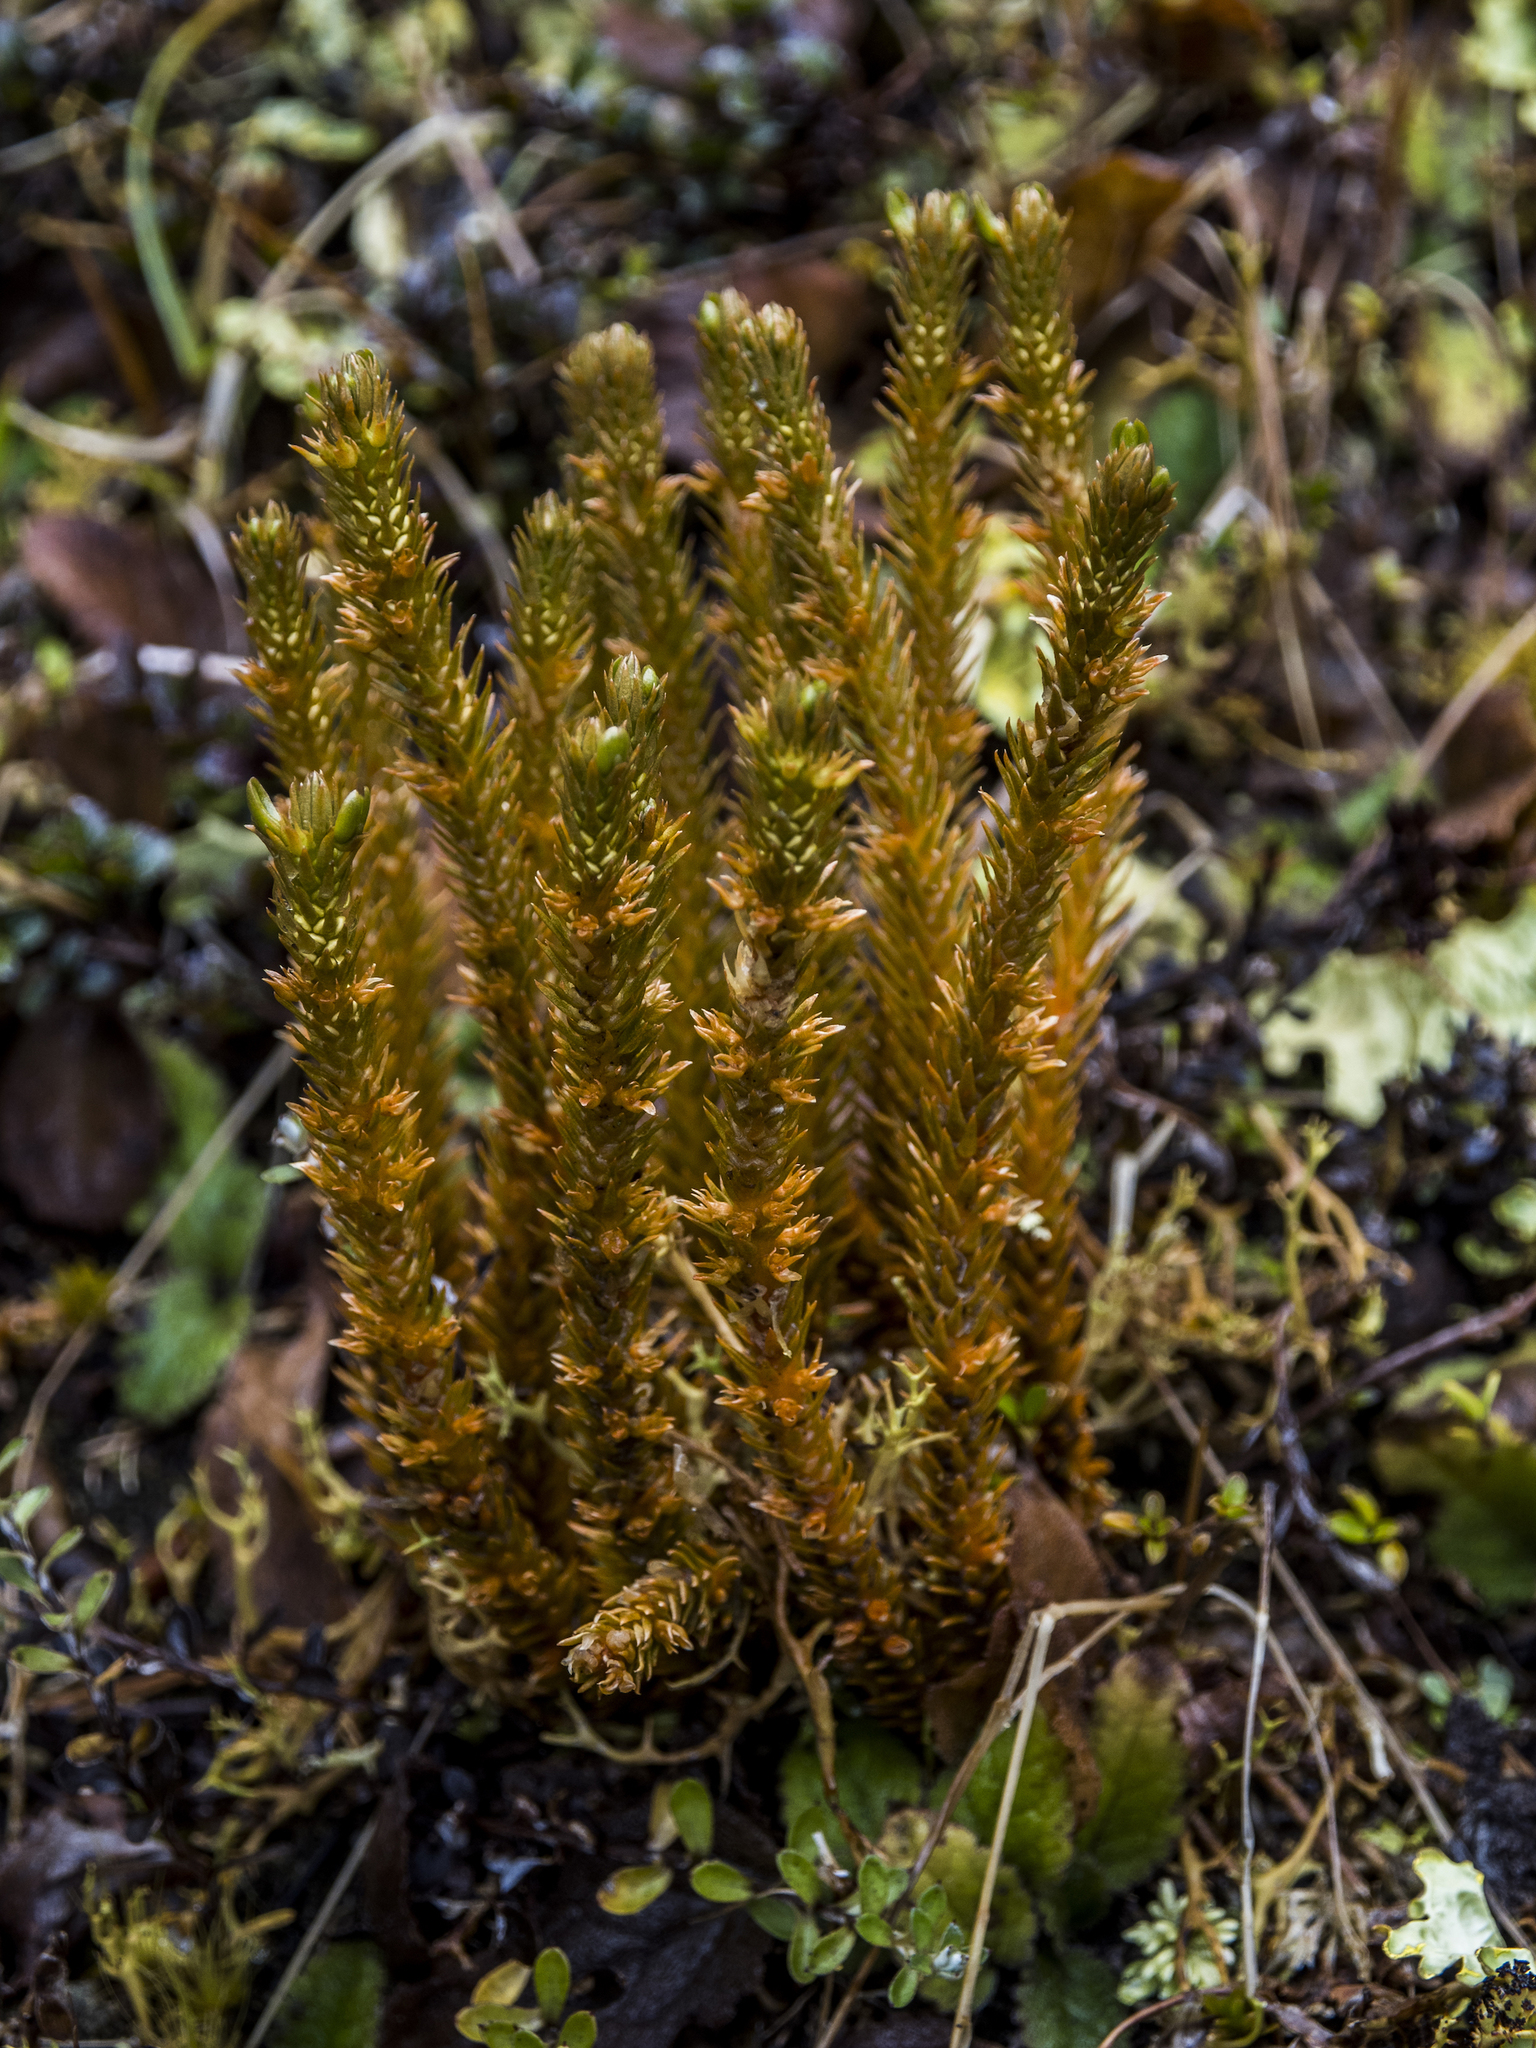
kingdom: Plantae
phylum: Tracheophyta
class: Lycopodiopsida
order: Lycopodiales
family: Lycopodiaceae
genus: Huperzia
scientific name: Huperzia australiana
